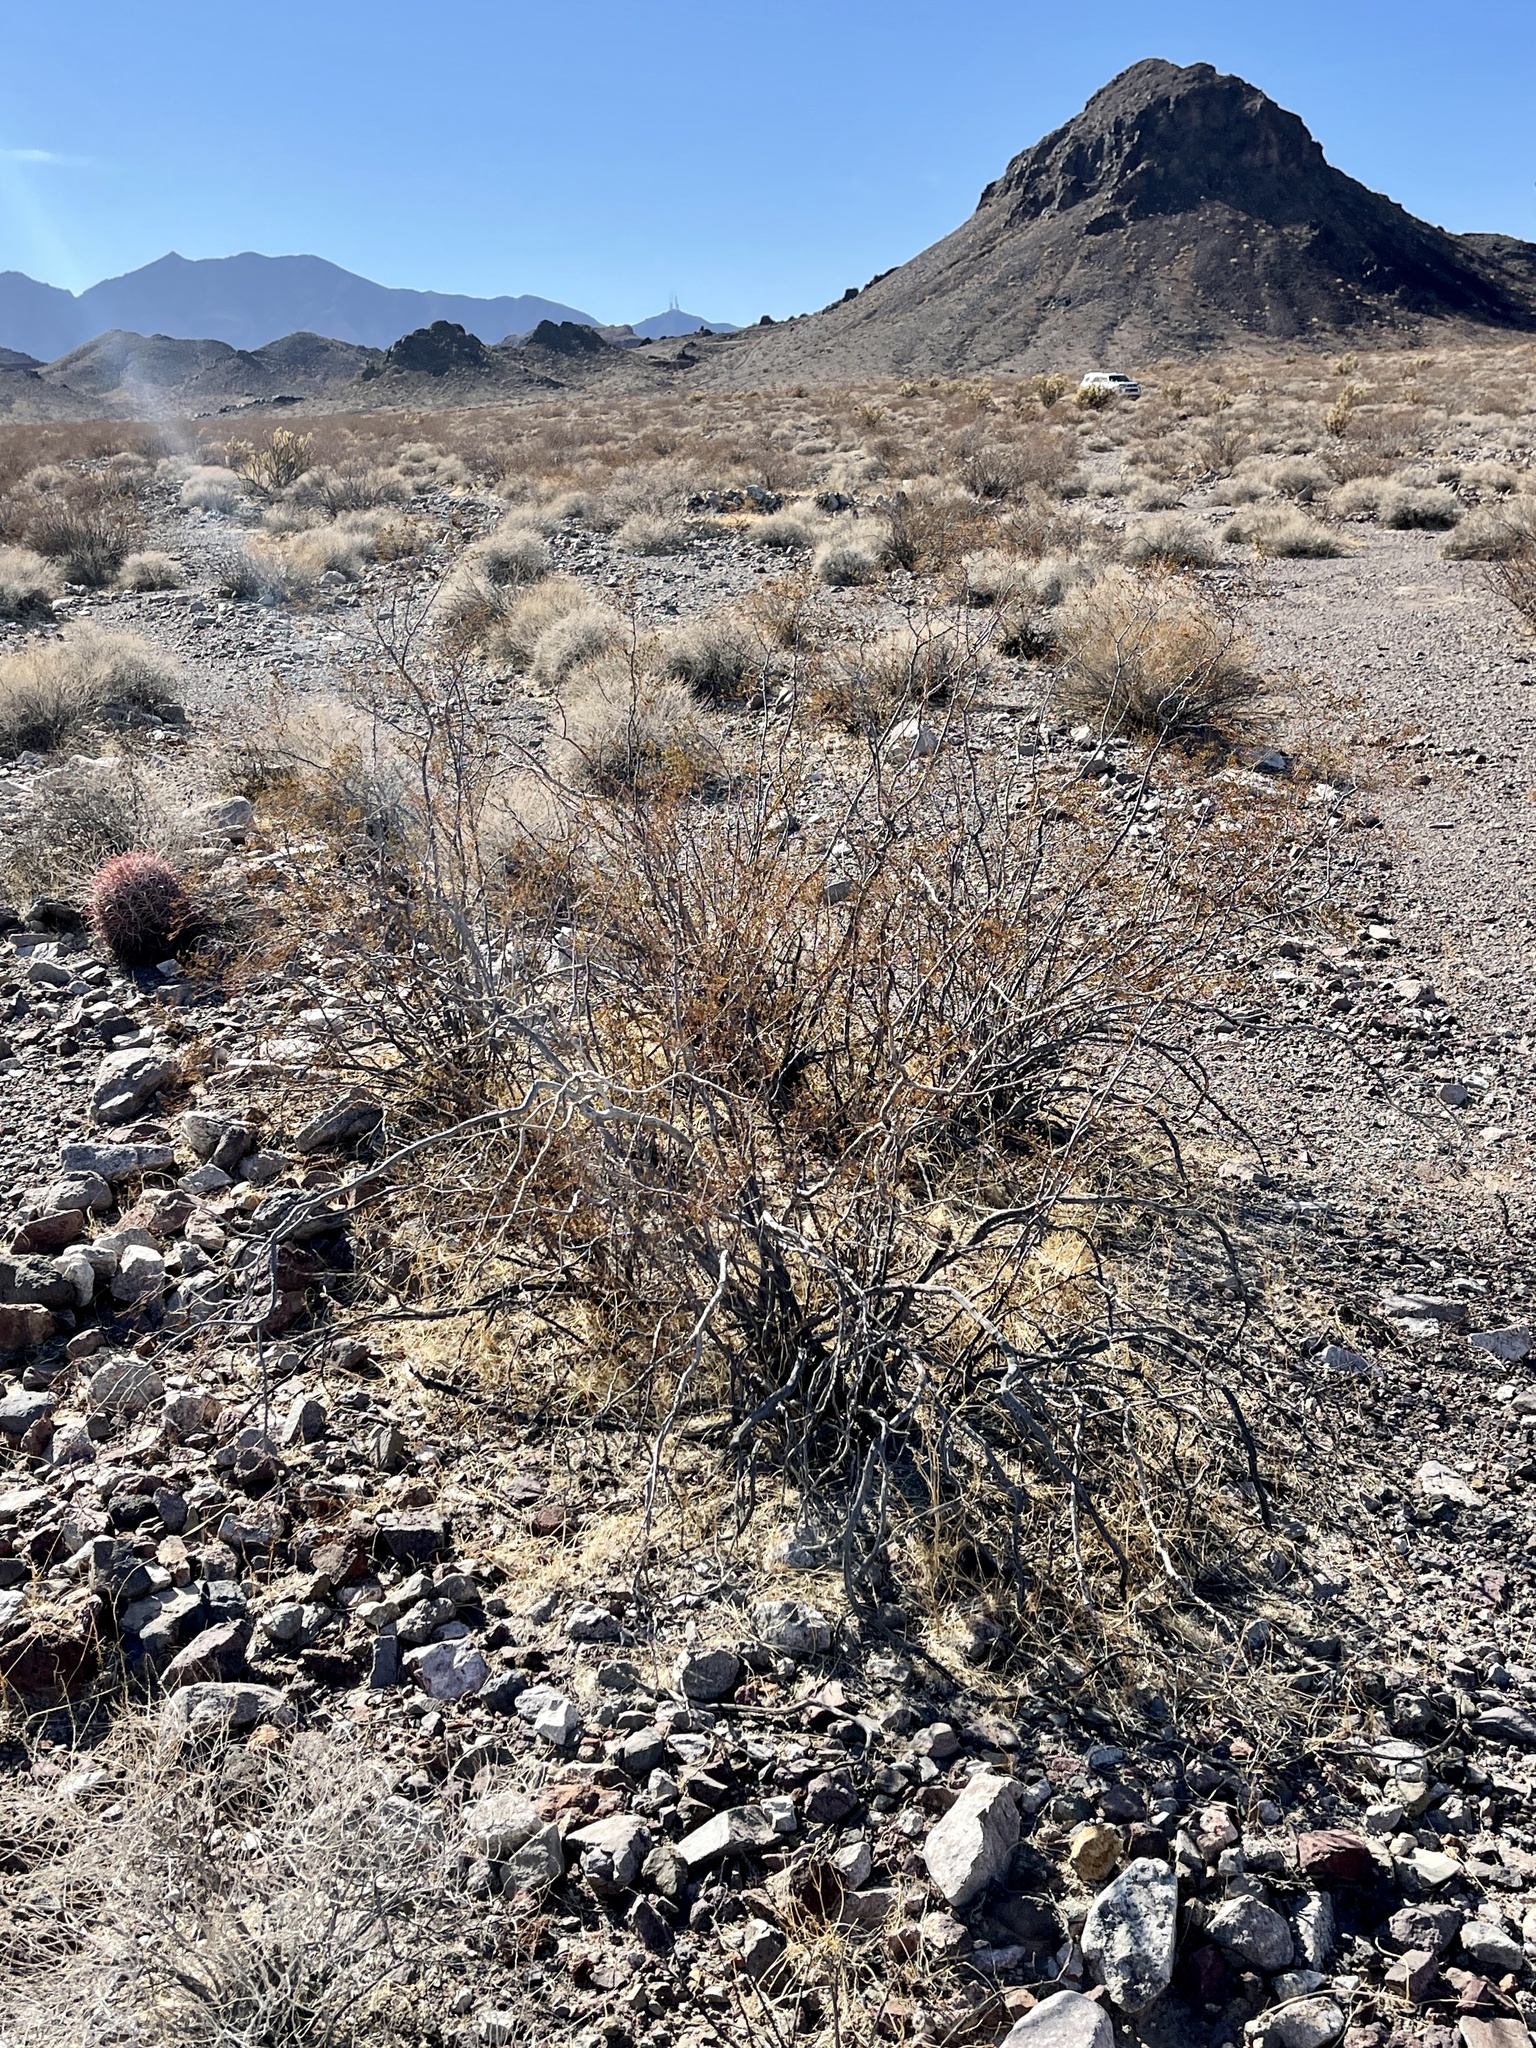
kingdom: Plantae
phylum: Tracheophyta
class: Magnoliopsida
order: Zygophyllales
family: Zygophyllaceae
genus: Larrea
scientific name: Larrea tridentata
